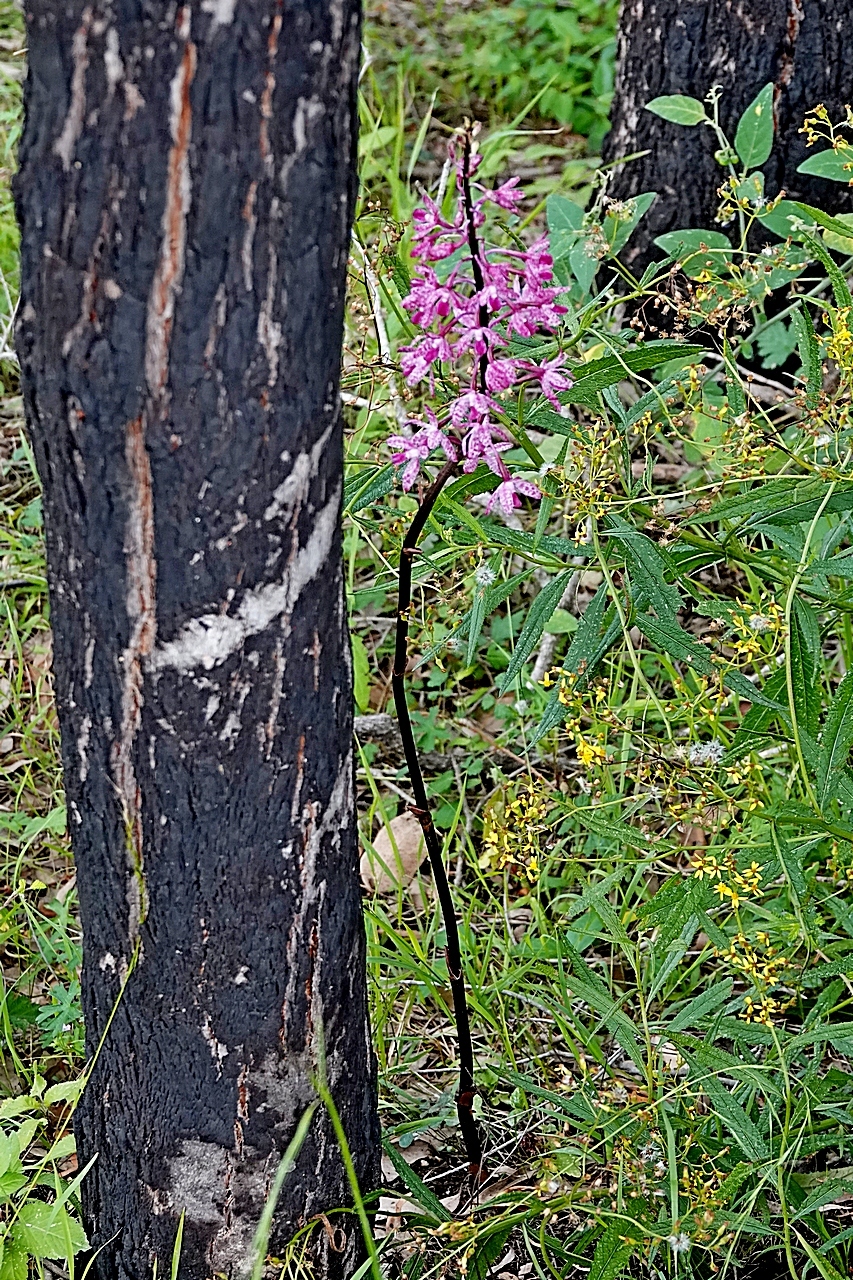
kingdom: Plantae
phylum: Tracheophyta
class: Liliopsida
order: Asparagales
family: Orchidaceae
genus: Dipodium
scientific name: Dipodium squamatum
